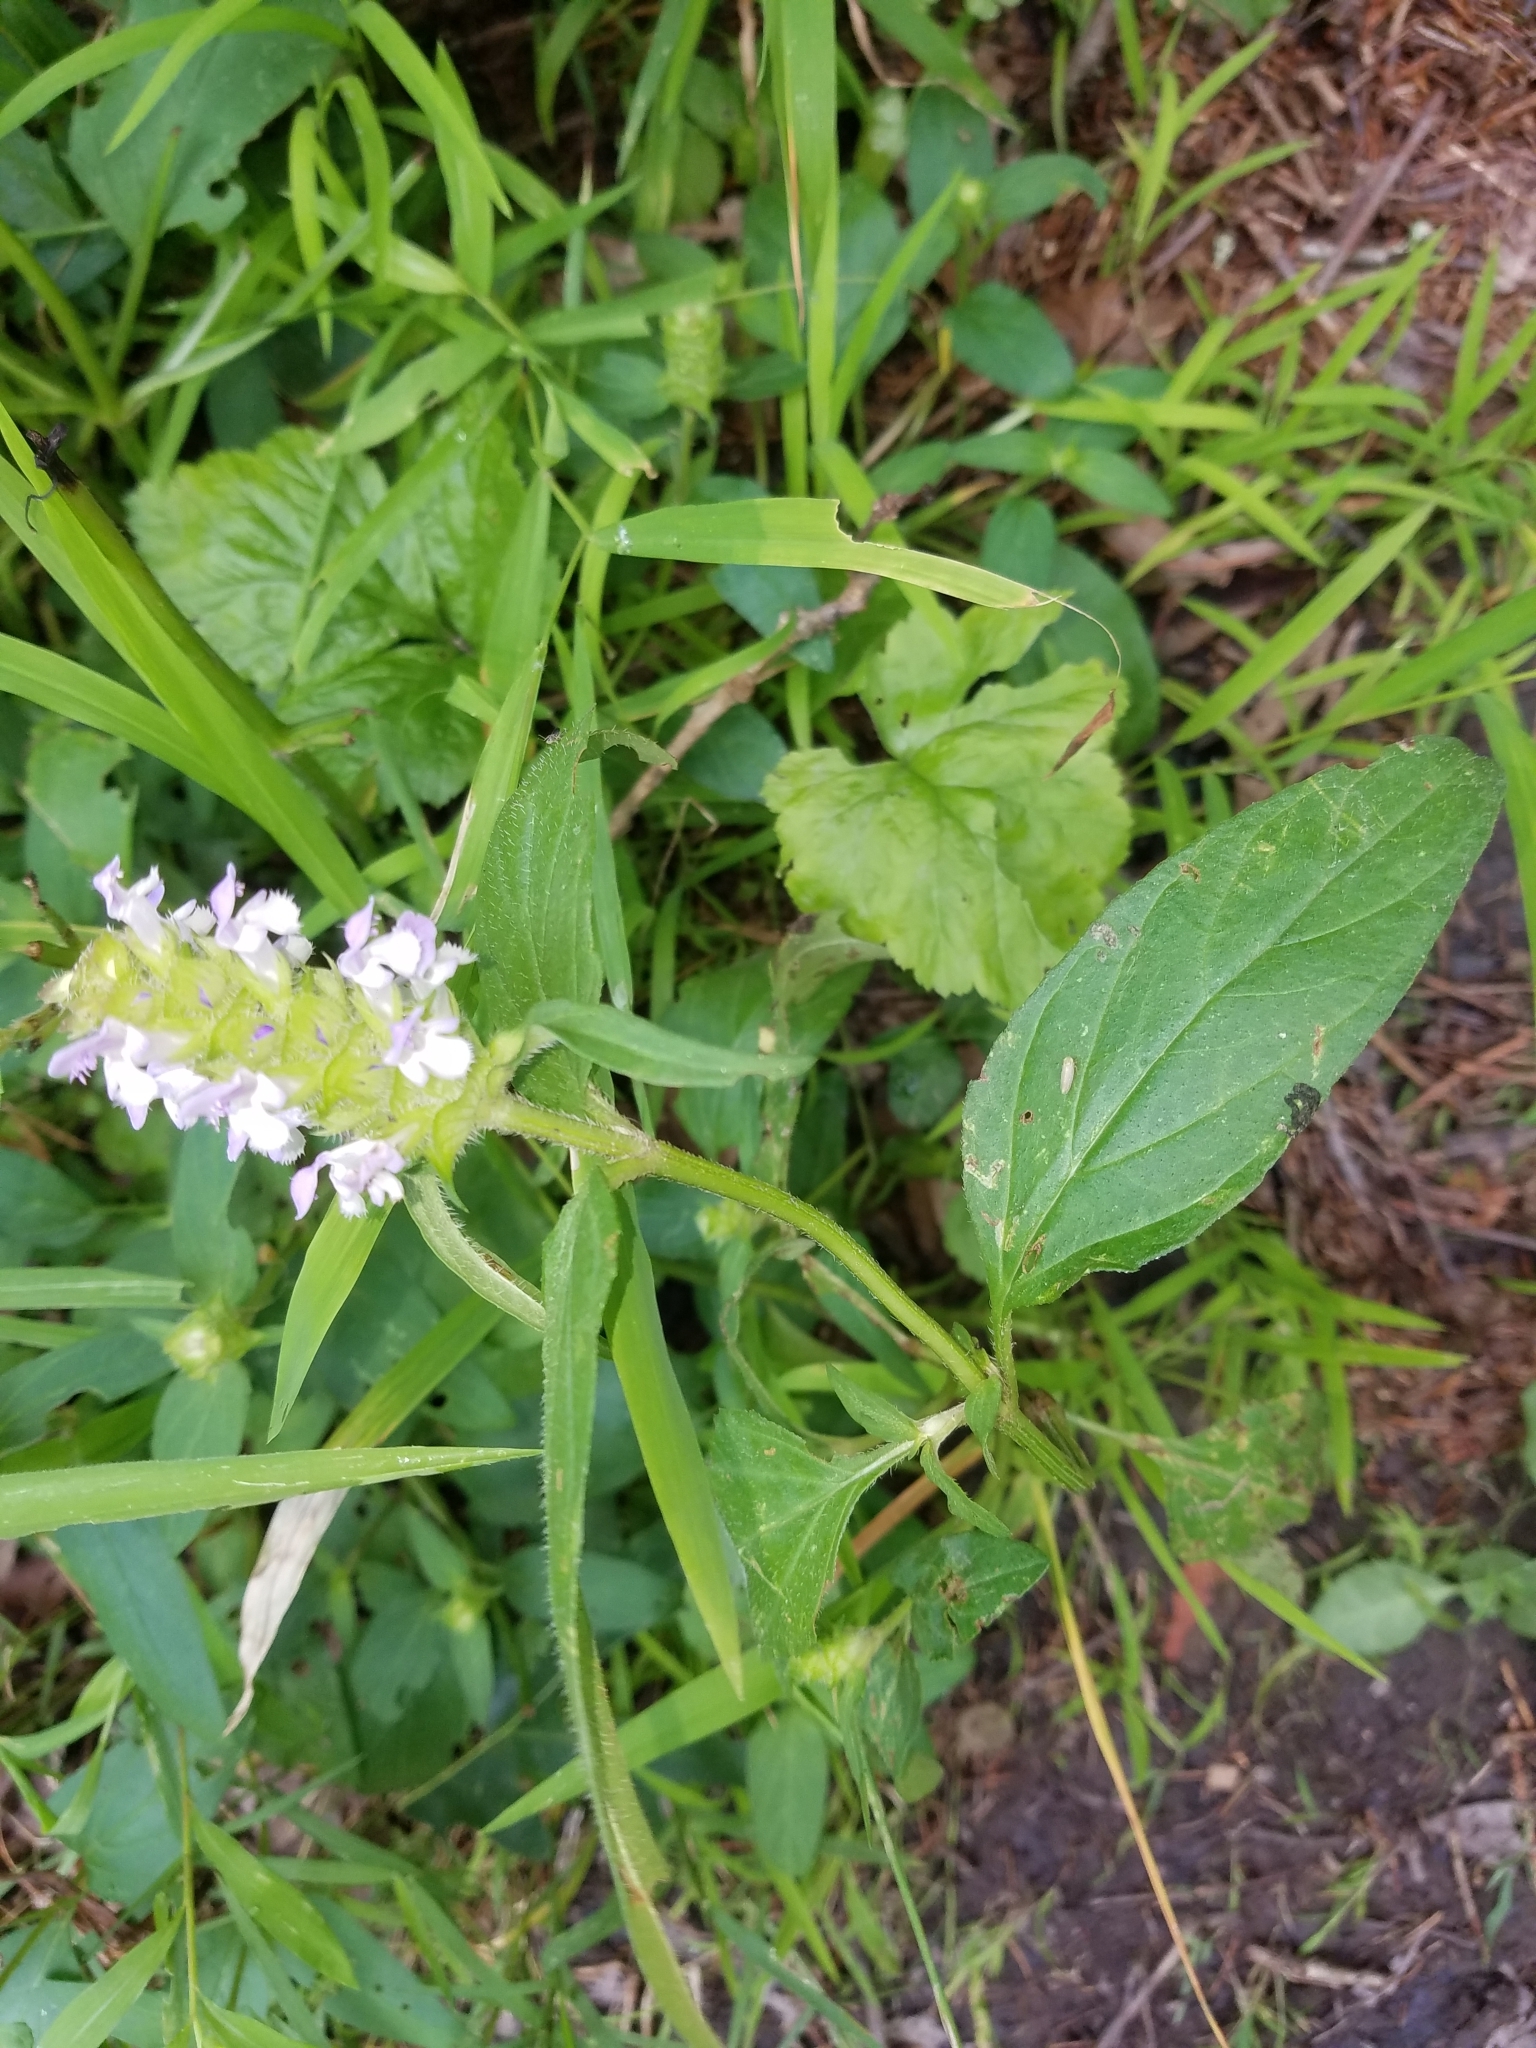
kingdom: Plantae
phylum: Tracheophyta
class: Magnoliopsida
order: Lamiales
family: Lamiaceae
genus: Prunella
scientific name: Prunella vulgaris
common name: Heal-all
